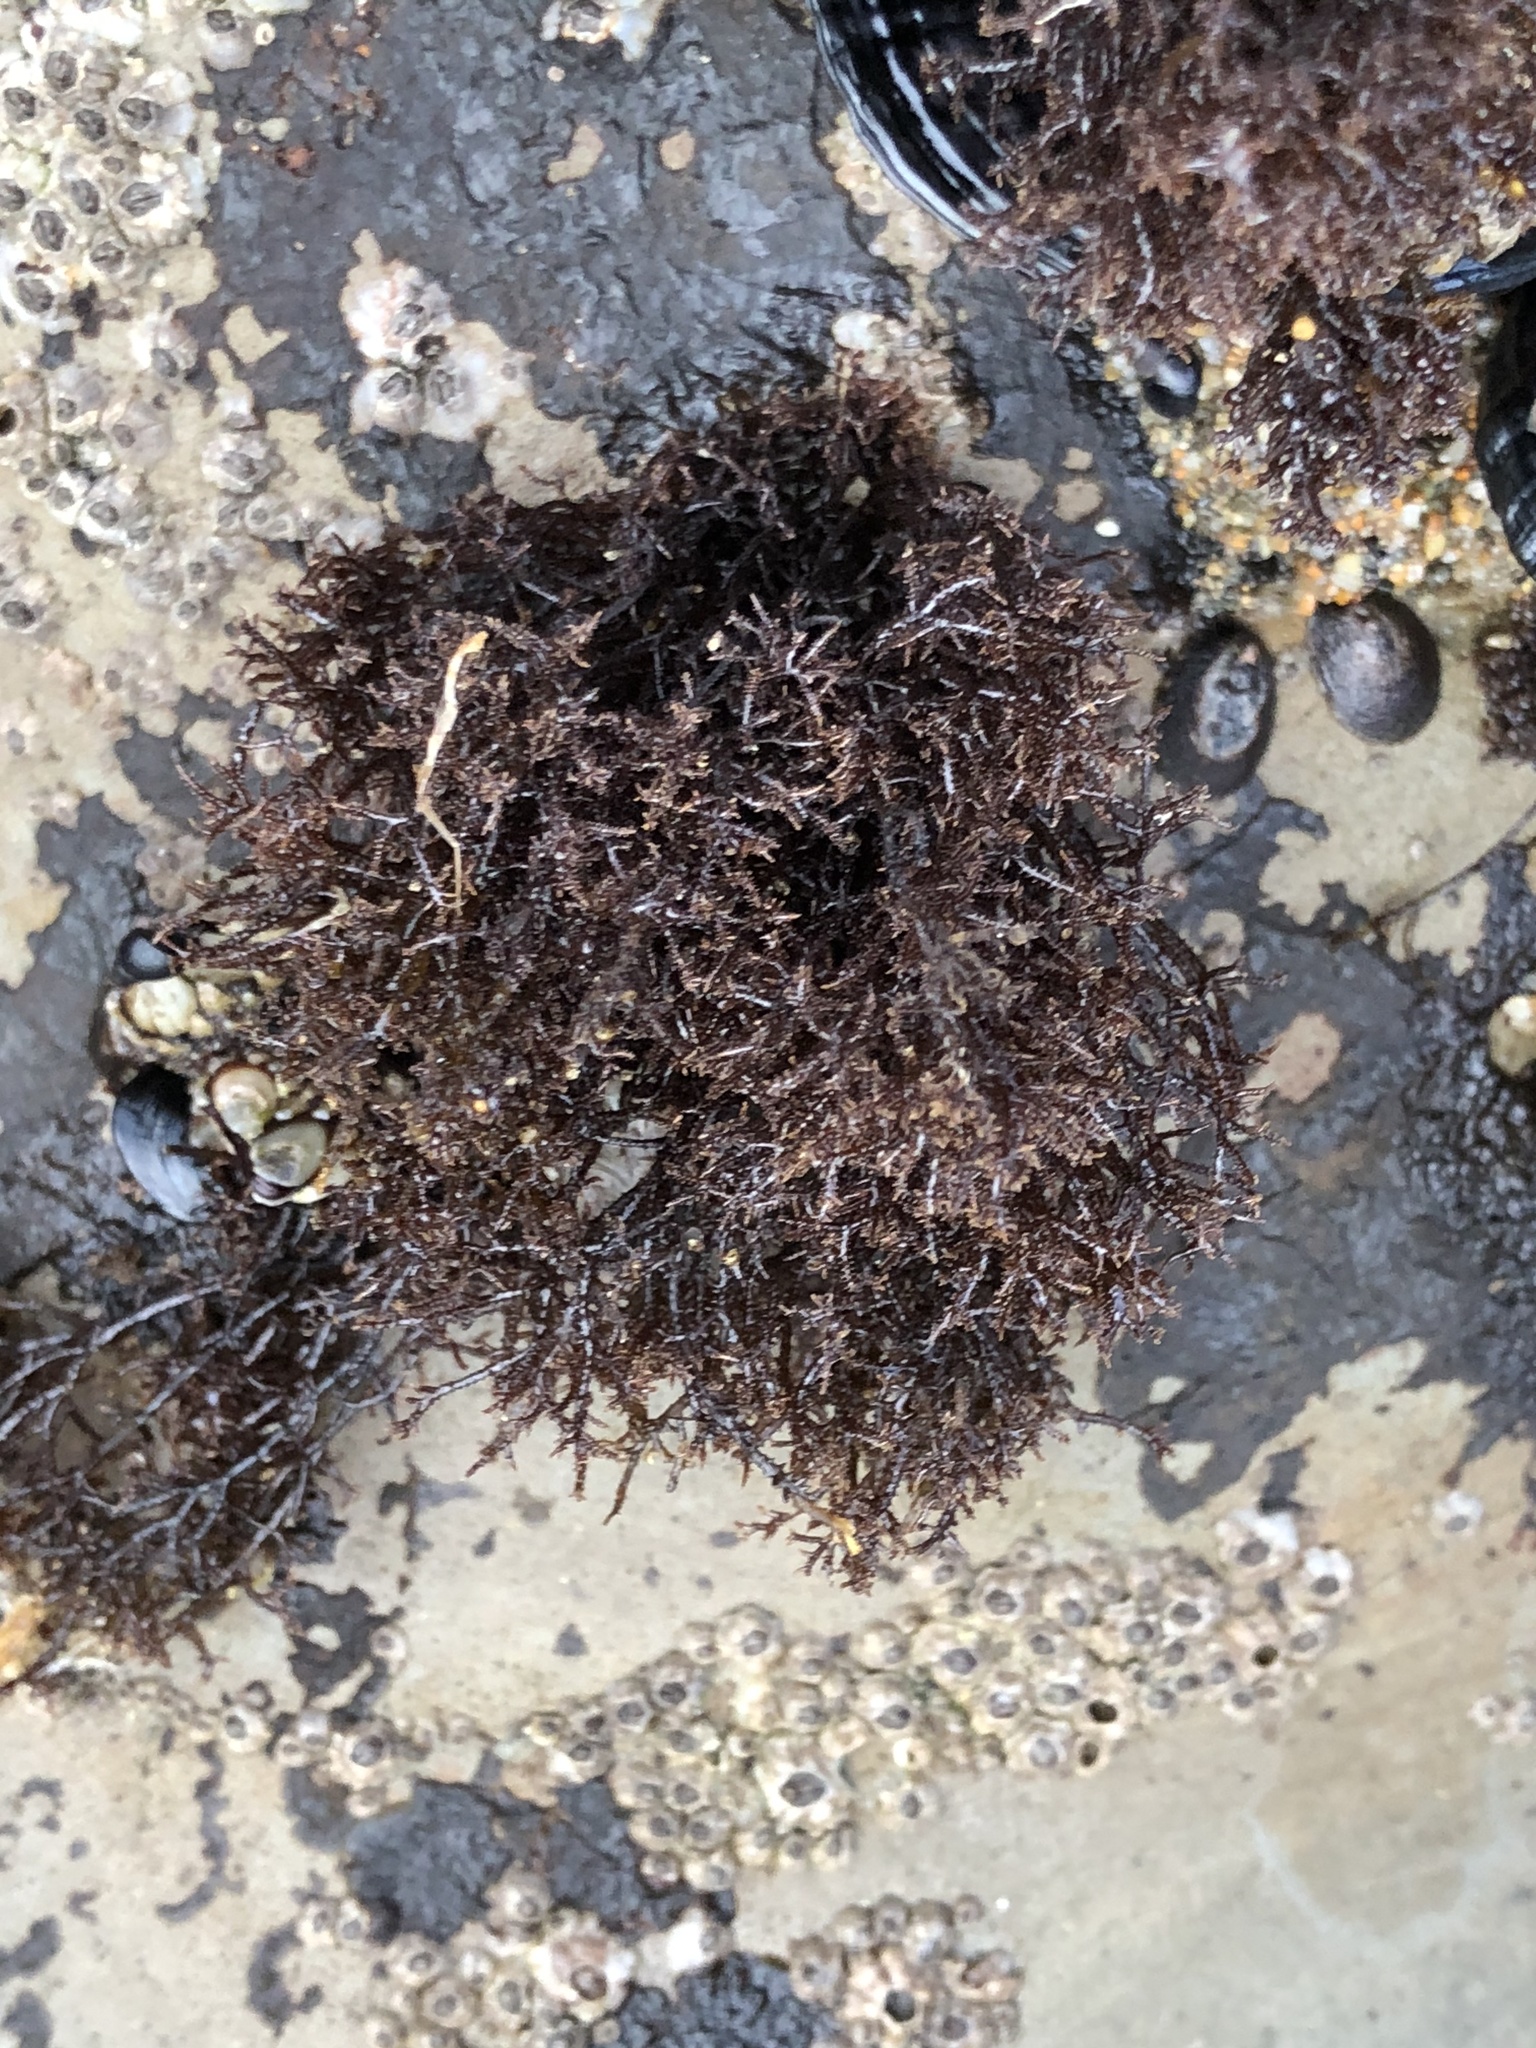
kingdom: Plantae
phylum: Rhodophyta
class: Florideophyceae
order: Gigartinales
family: Endocladiaceae
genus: Endocladia
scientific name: Endocladia muricata
